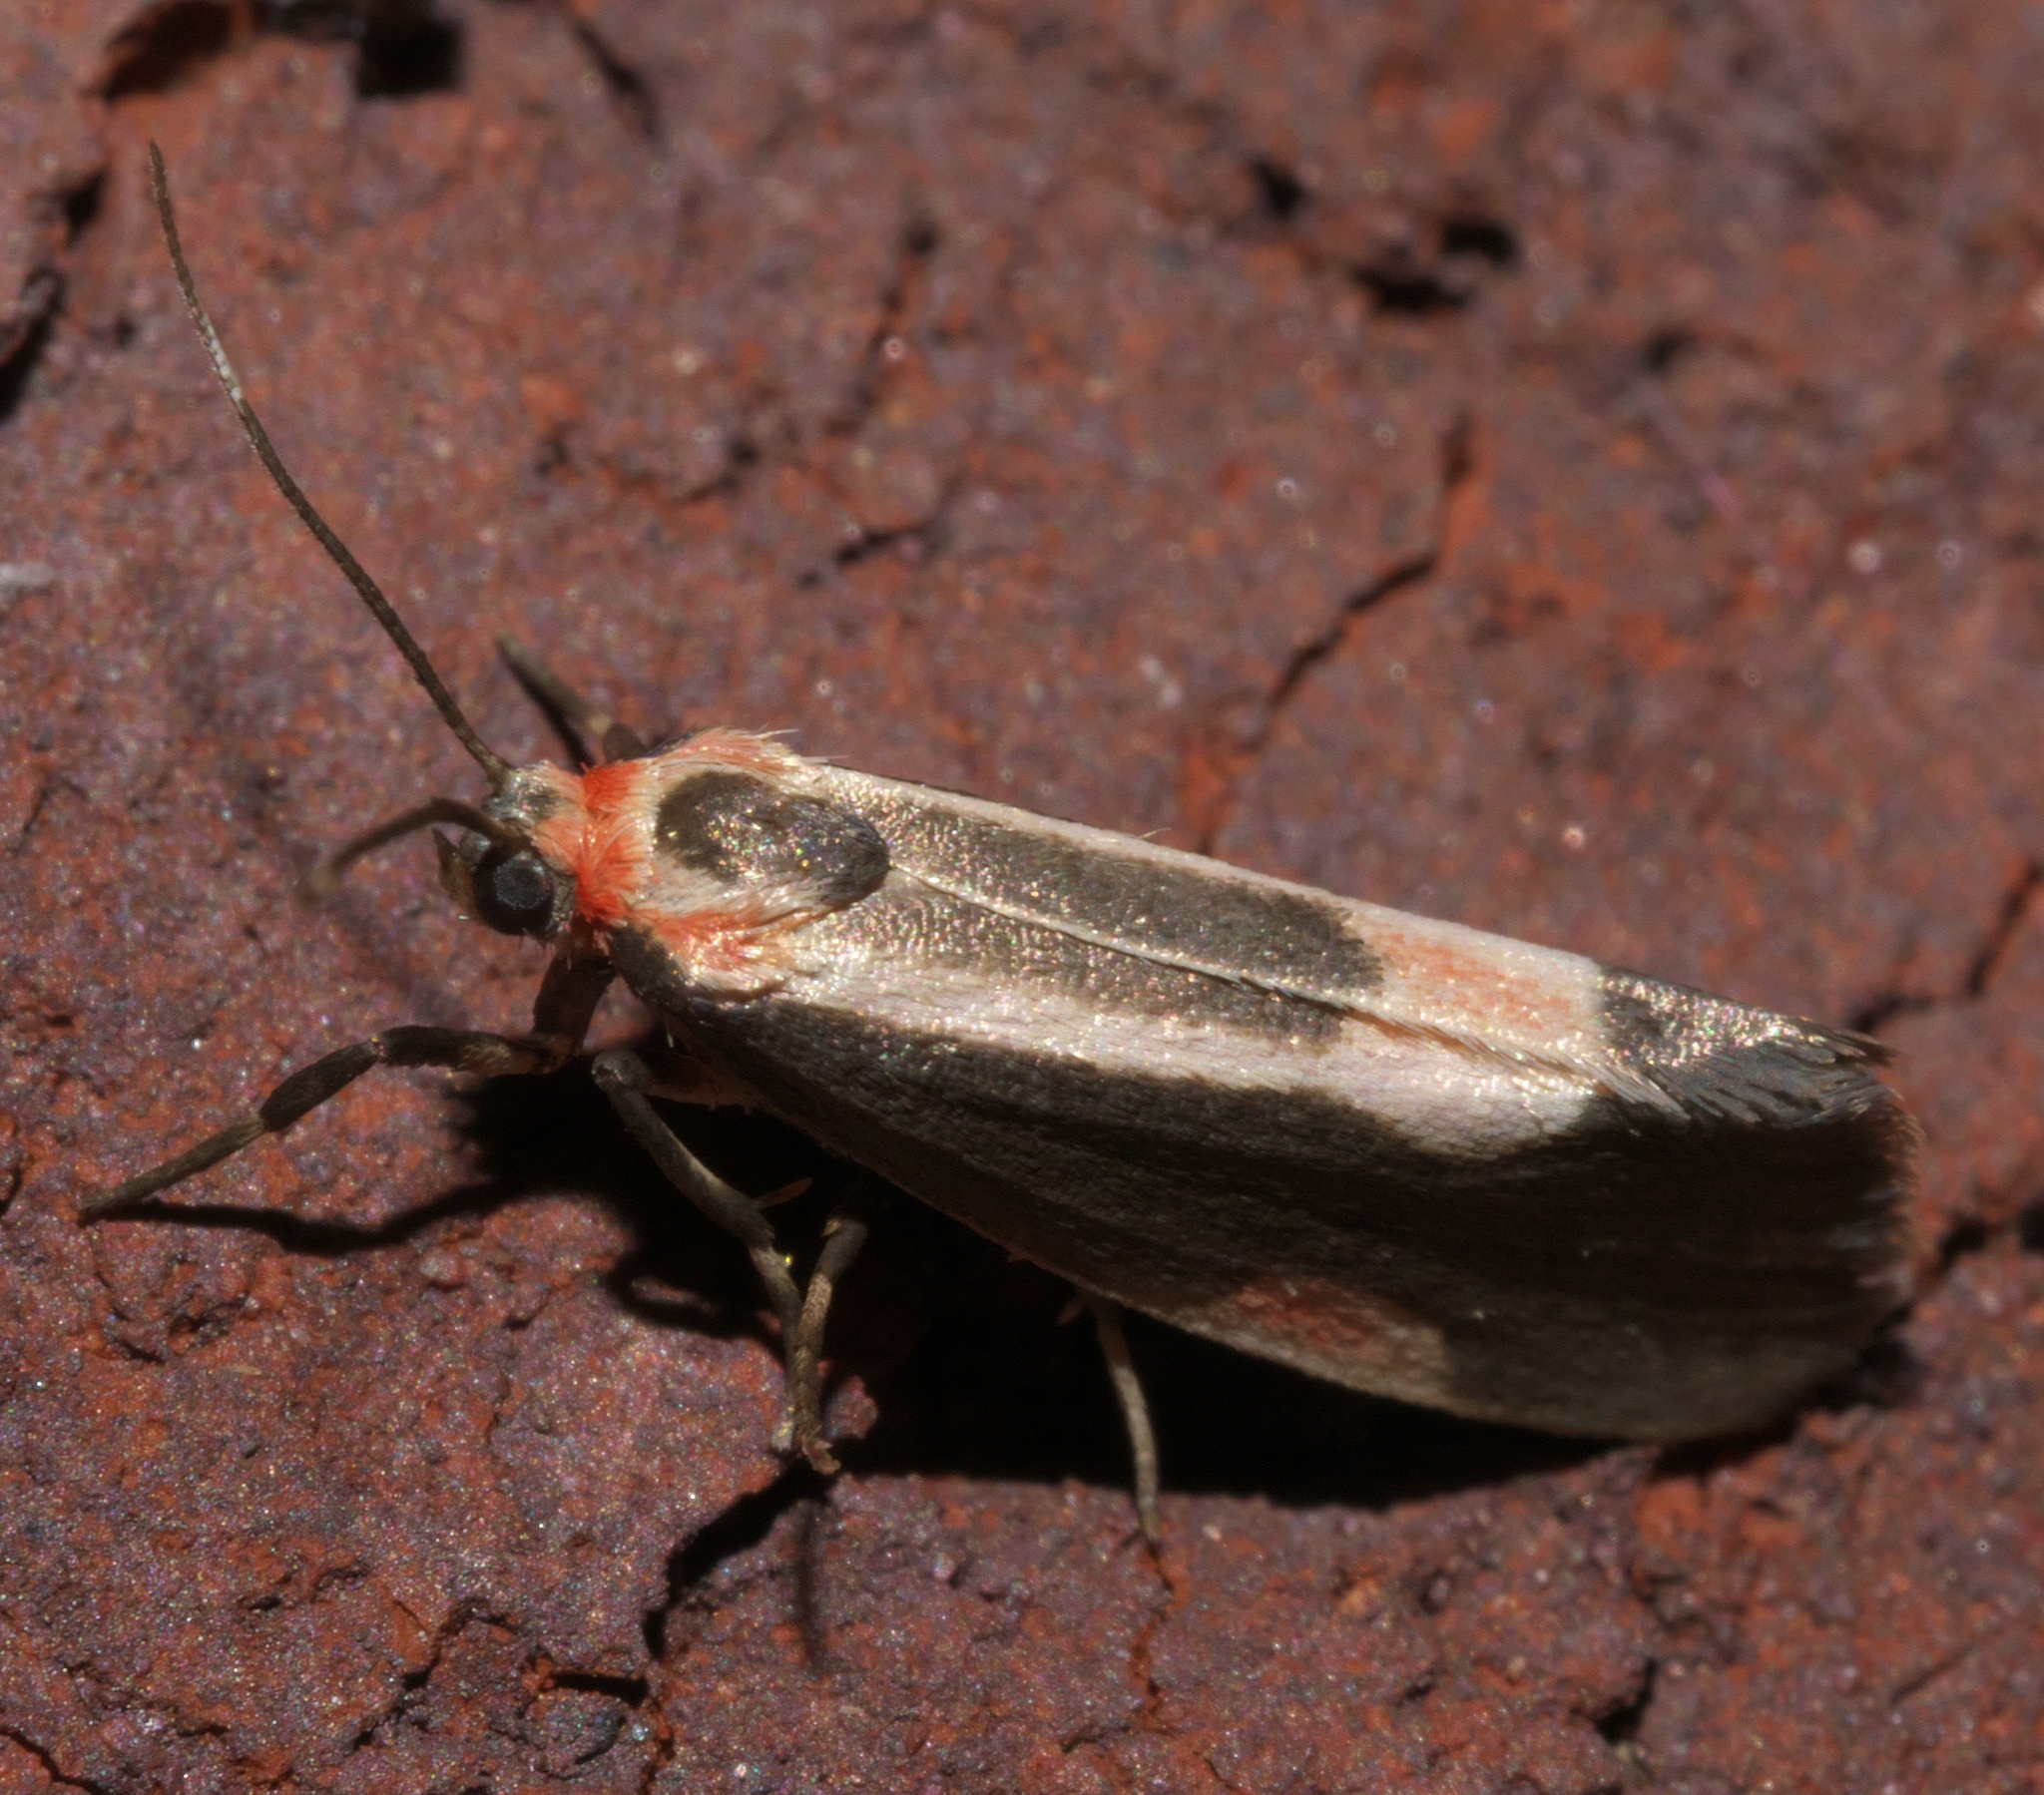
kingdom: Animalia
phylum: Arthropoda
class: Insecta
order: Lepidoptera
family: Erebidae
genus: Cisthene
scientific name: Cisthene packardii
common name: Packard's lichen moth
